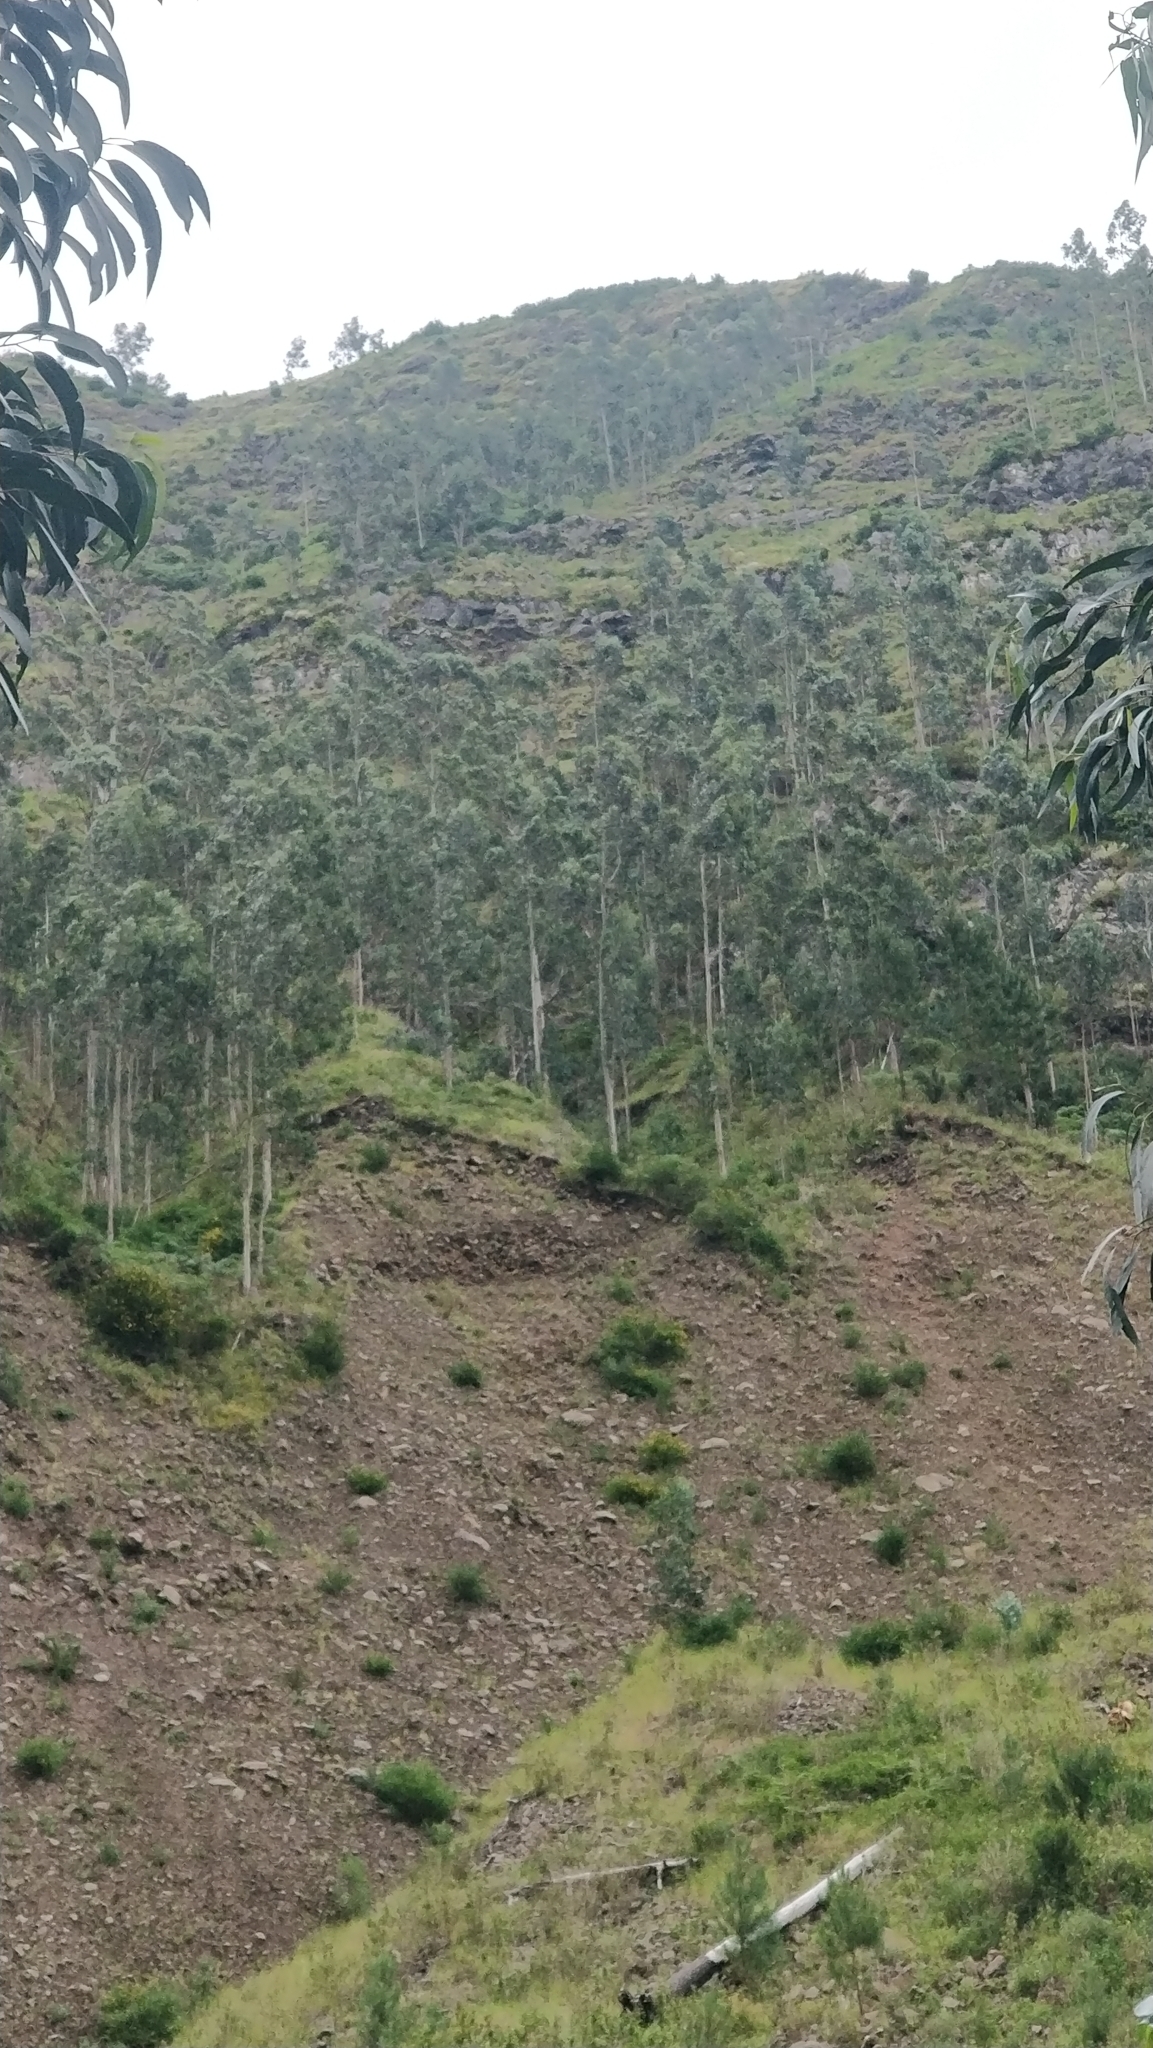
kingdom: Plantae
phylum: Tracheophyta
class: Magnoliopsida
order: Myrtales
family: Myrtaceae
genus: Eucalyptus
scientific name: Eucalyptus globulus
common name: Southern blue-gum
